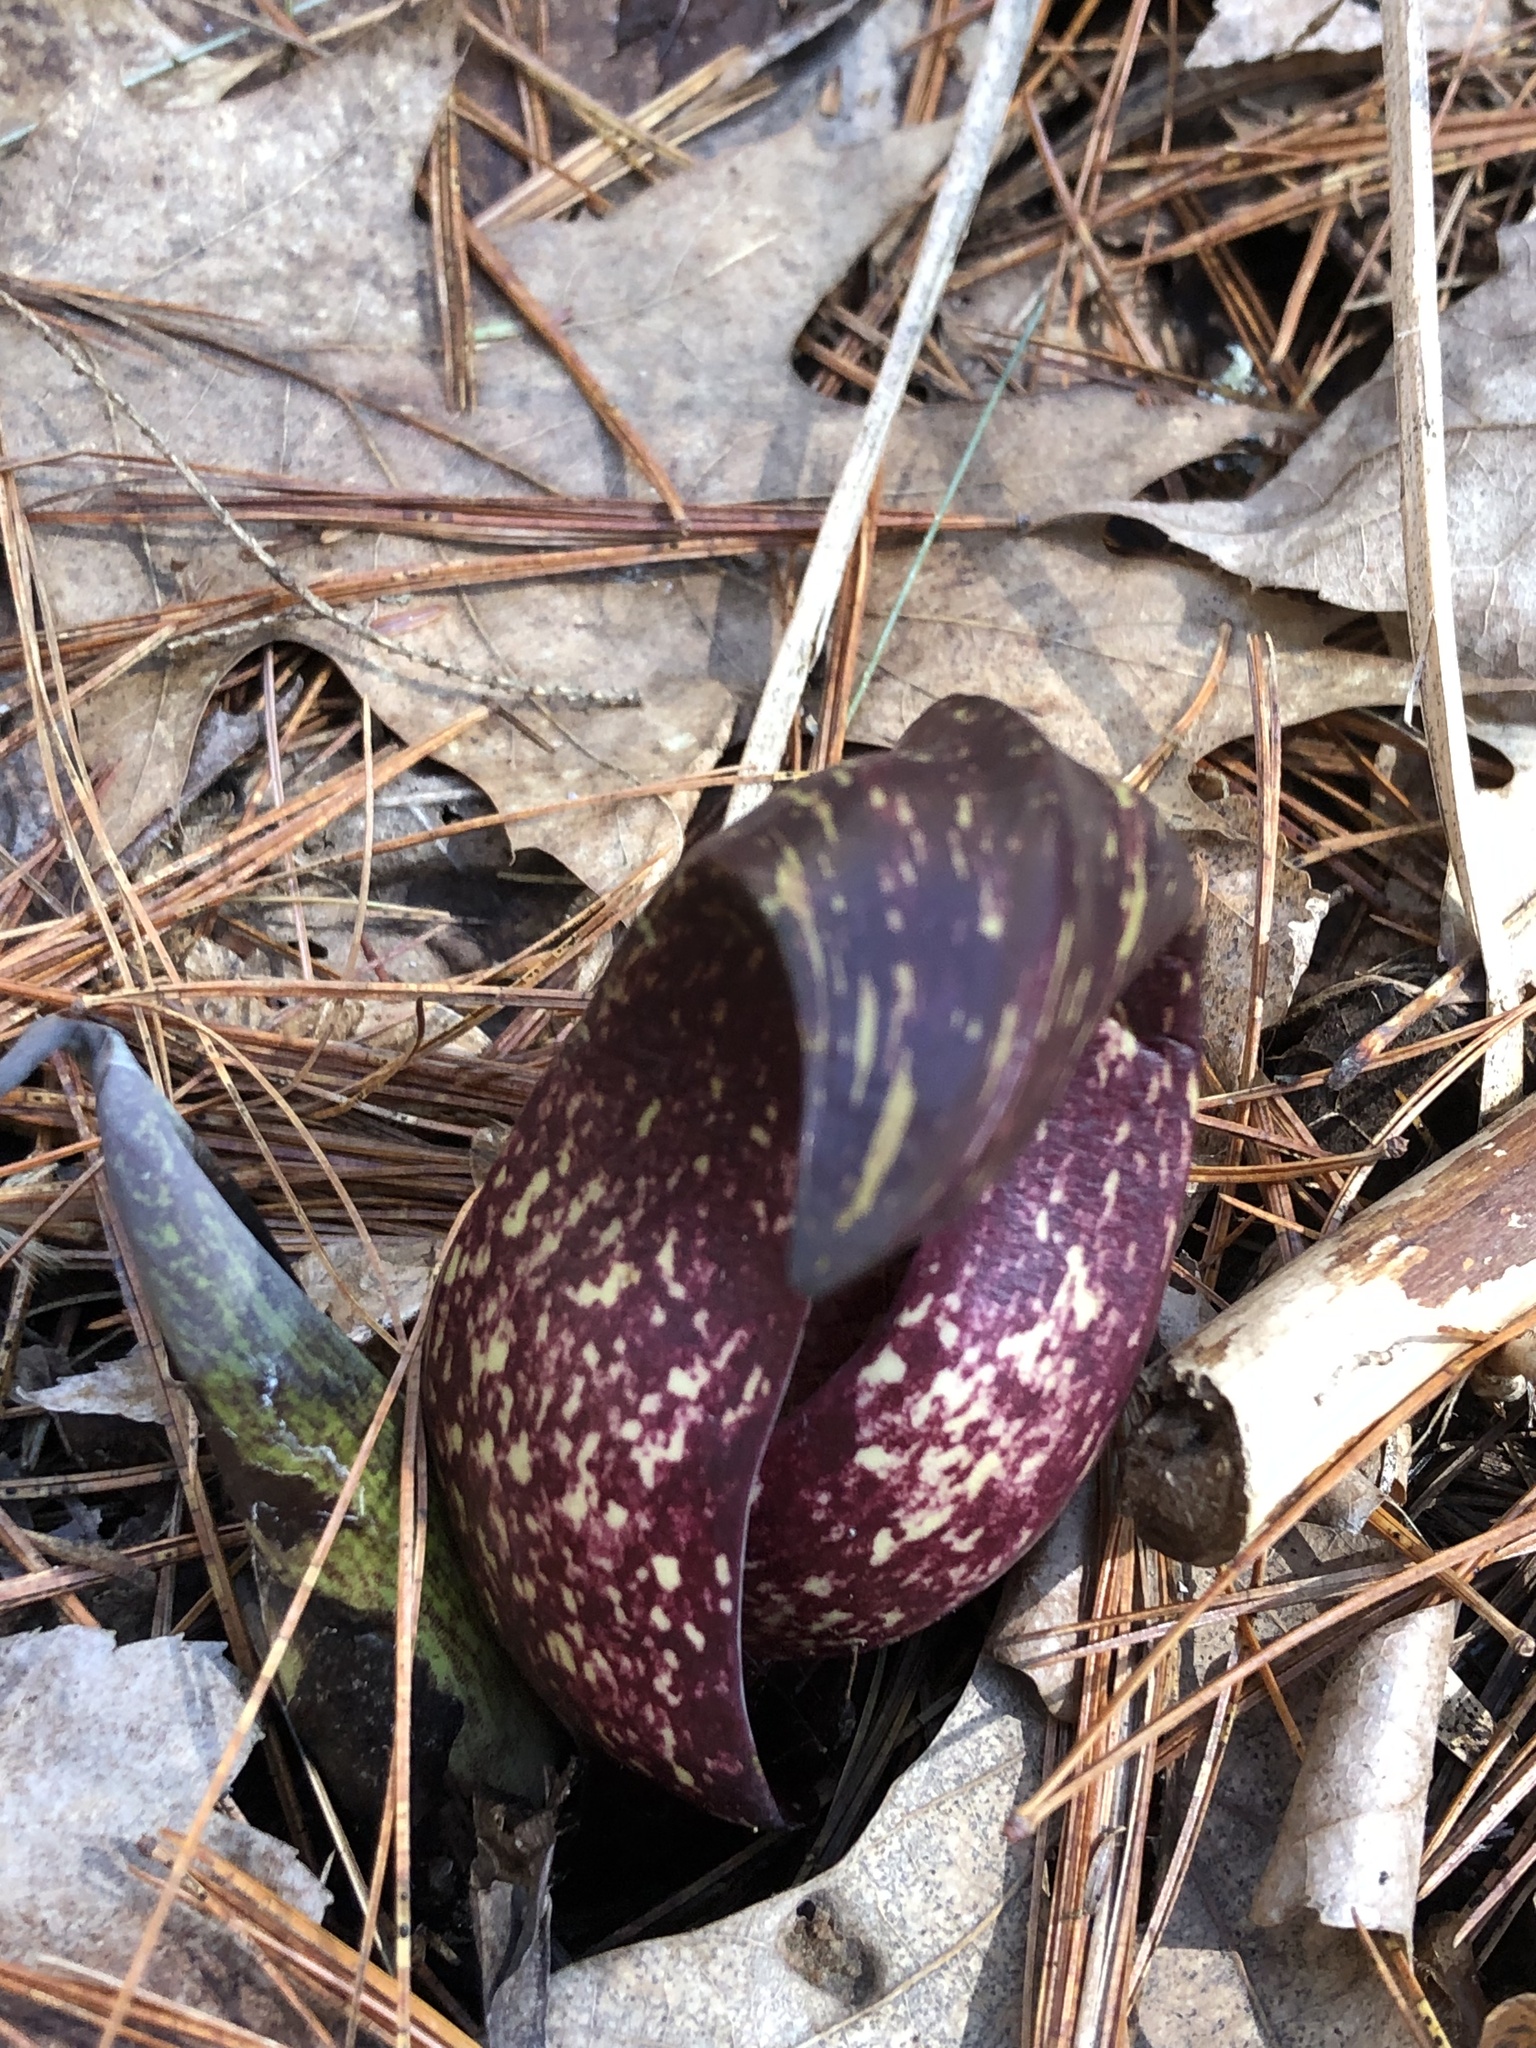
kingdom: Plantae
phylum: Tracheophyta
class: Liliopsida
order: Alismatales
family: Araceae
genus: Symplocarpus
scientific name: Symplocarpus foetidus
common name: Eastern skunk cabbage
